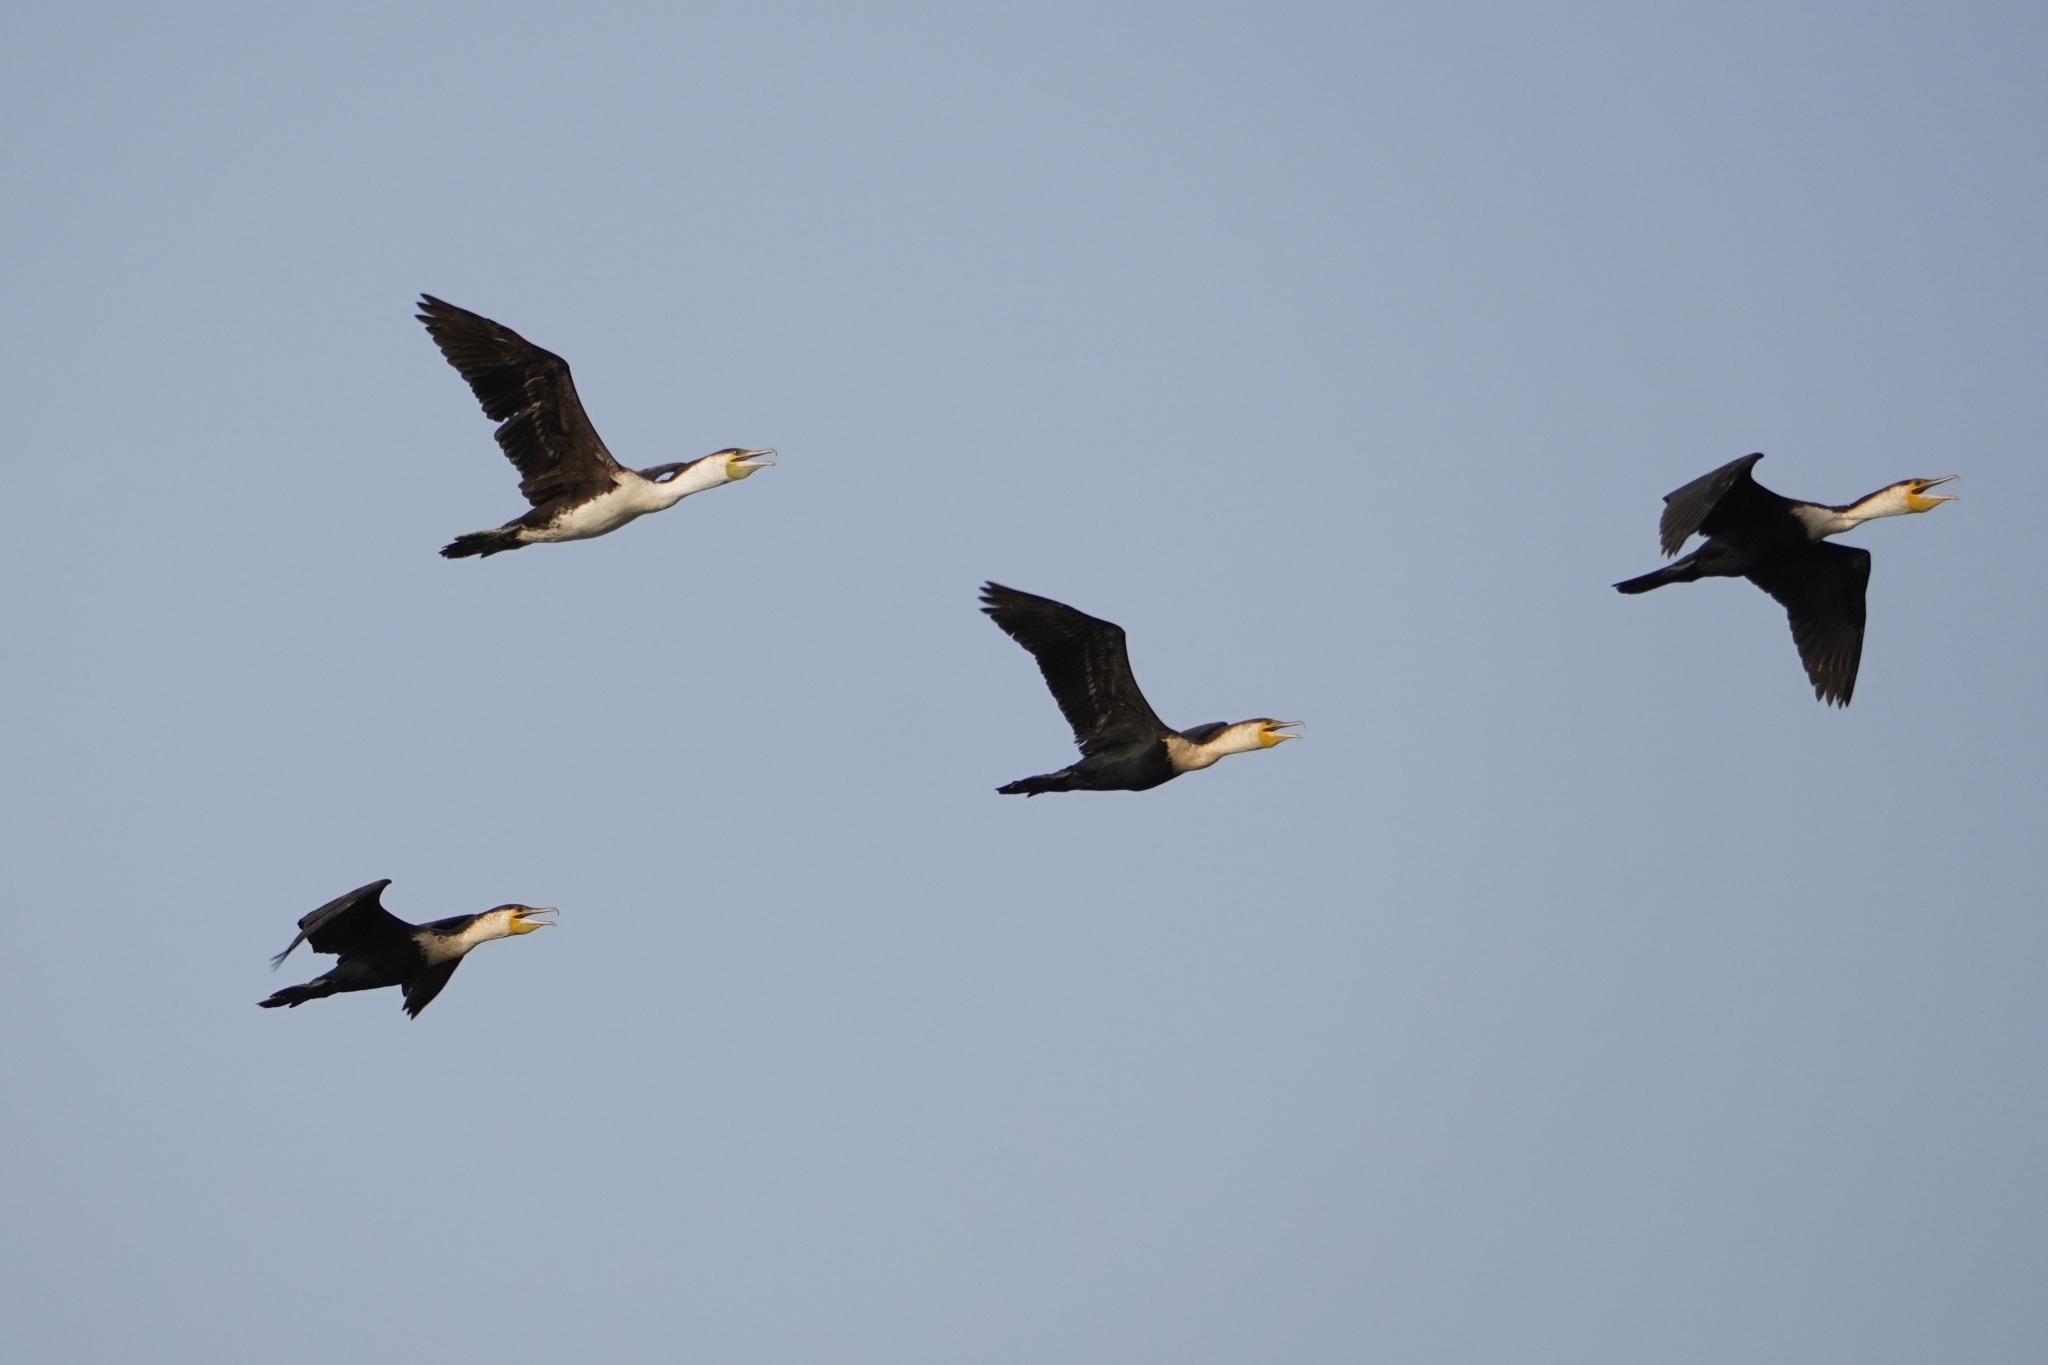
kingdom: Animalia
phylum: Chordata
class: Aves
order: Suliformes
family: Phalacrocoracidae
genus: Phalacrocorax
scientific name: Phalacrocorax carbo
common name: Great cormorant
